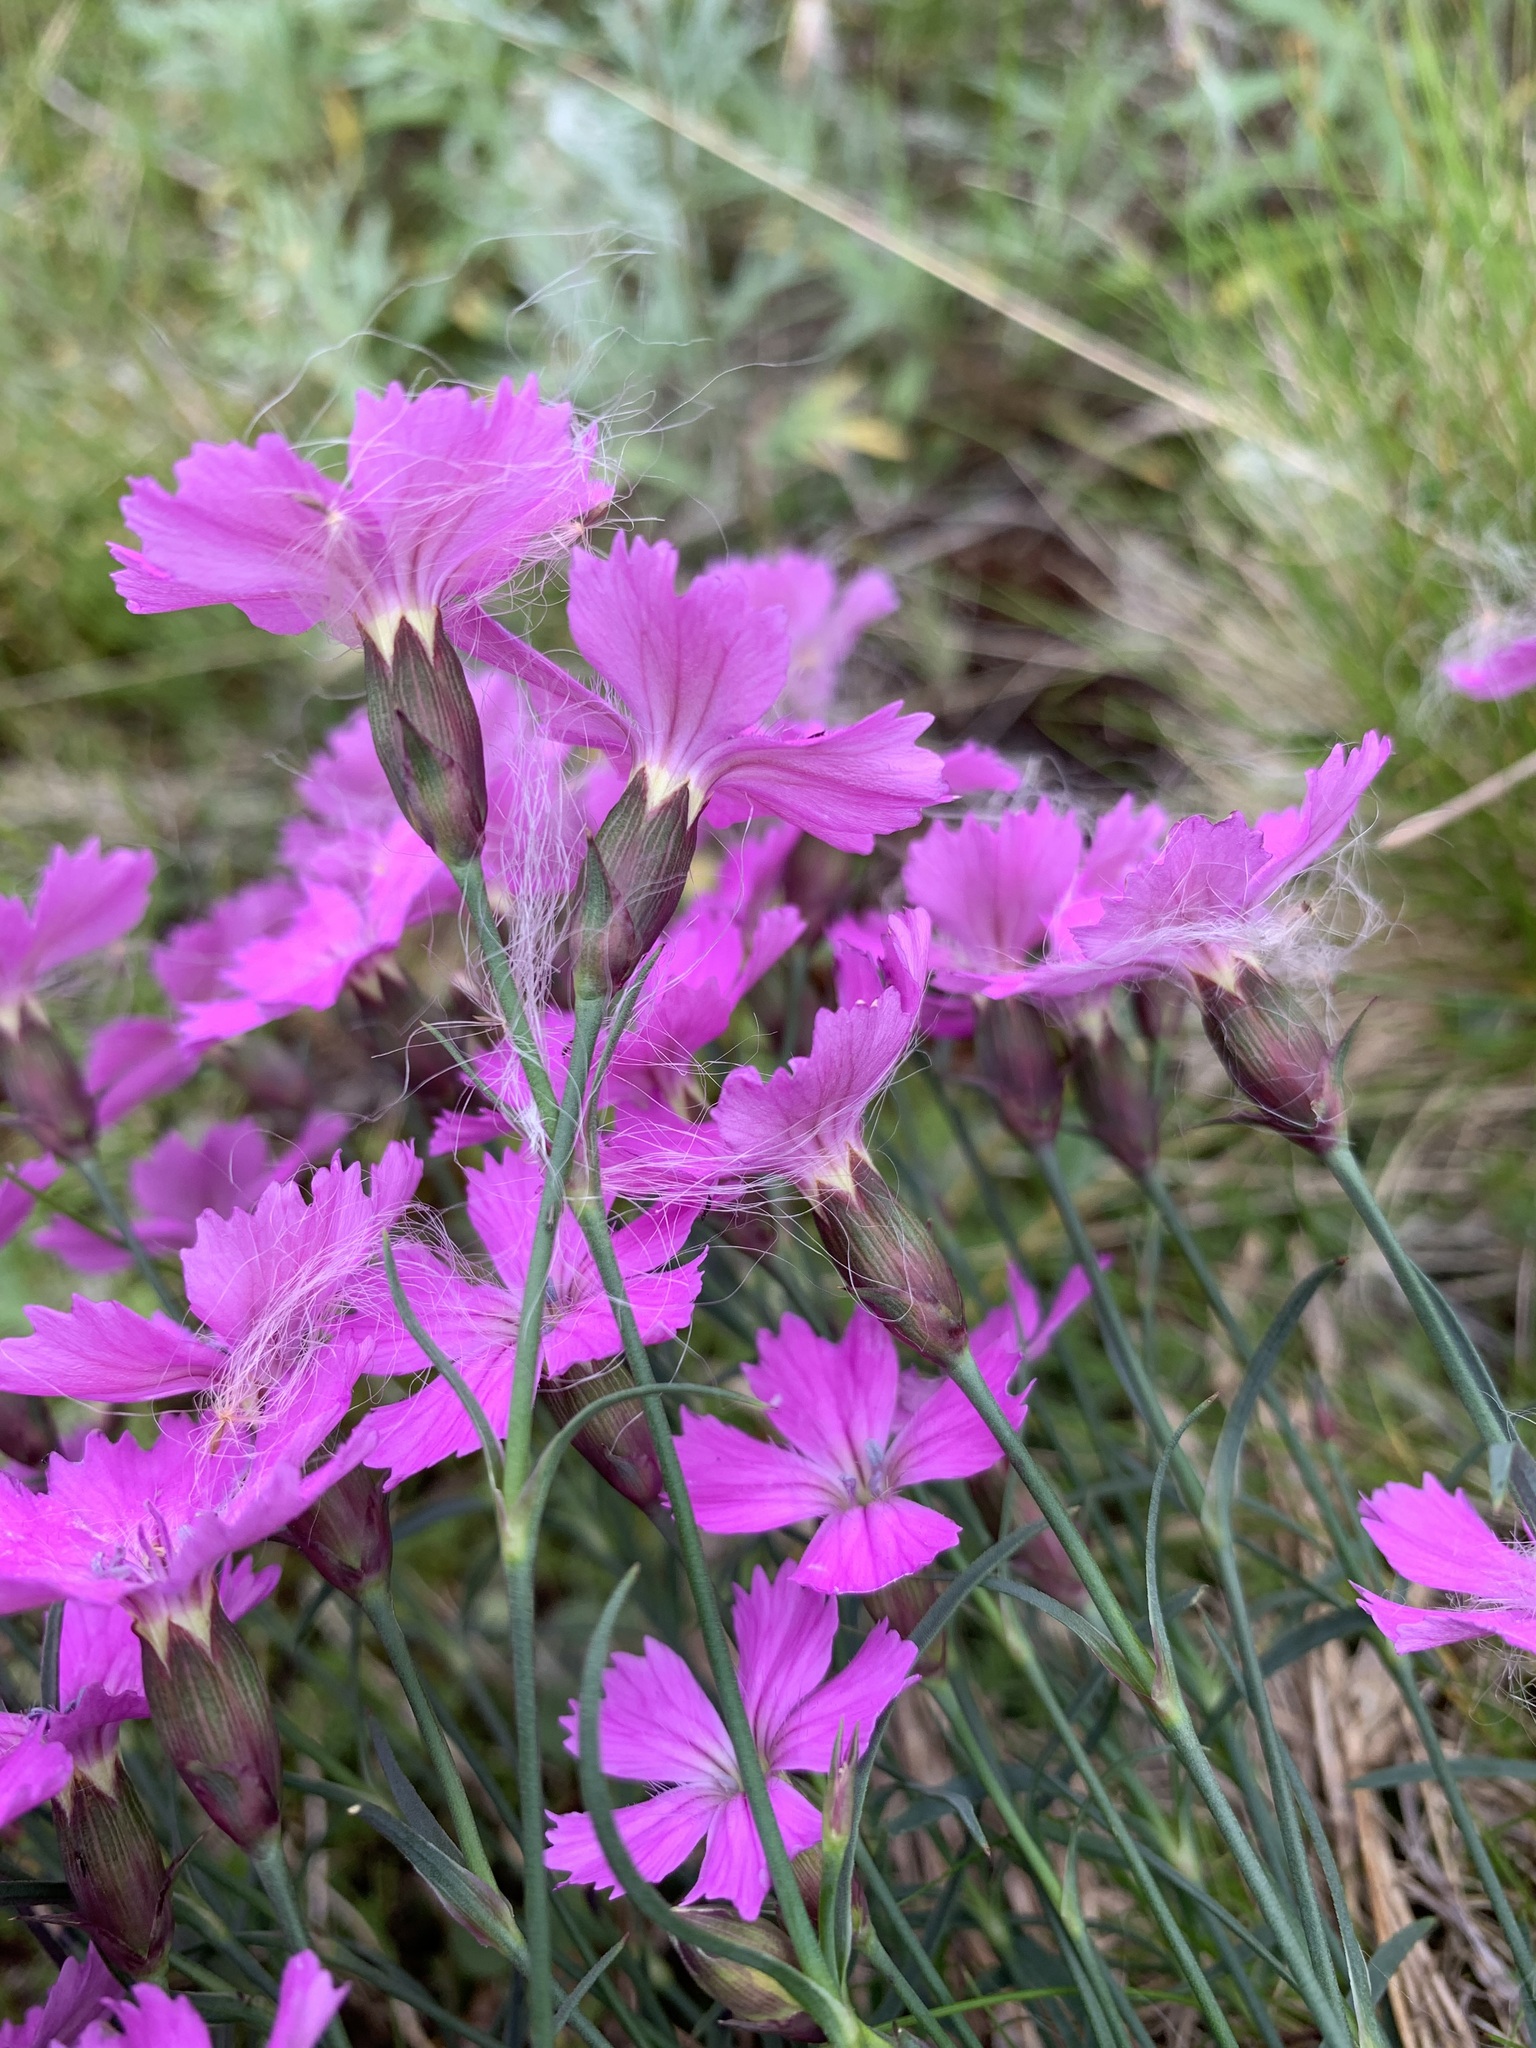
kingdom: Plantae
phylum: Tracheophyta
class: Magnoliopsida
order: Caryophyllales
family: Caryophyllaceae
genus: Dianthus
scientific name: Dianthus repens
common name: Northern pink
